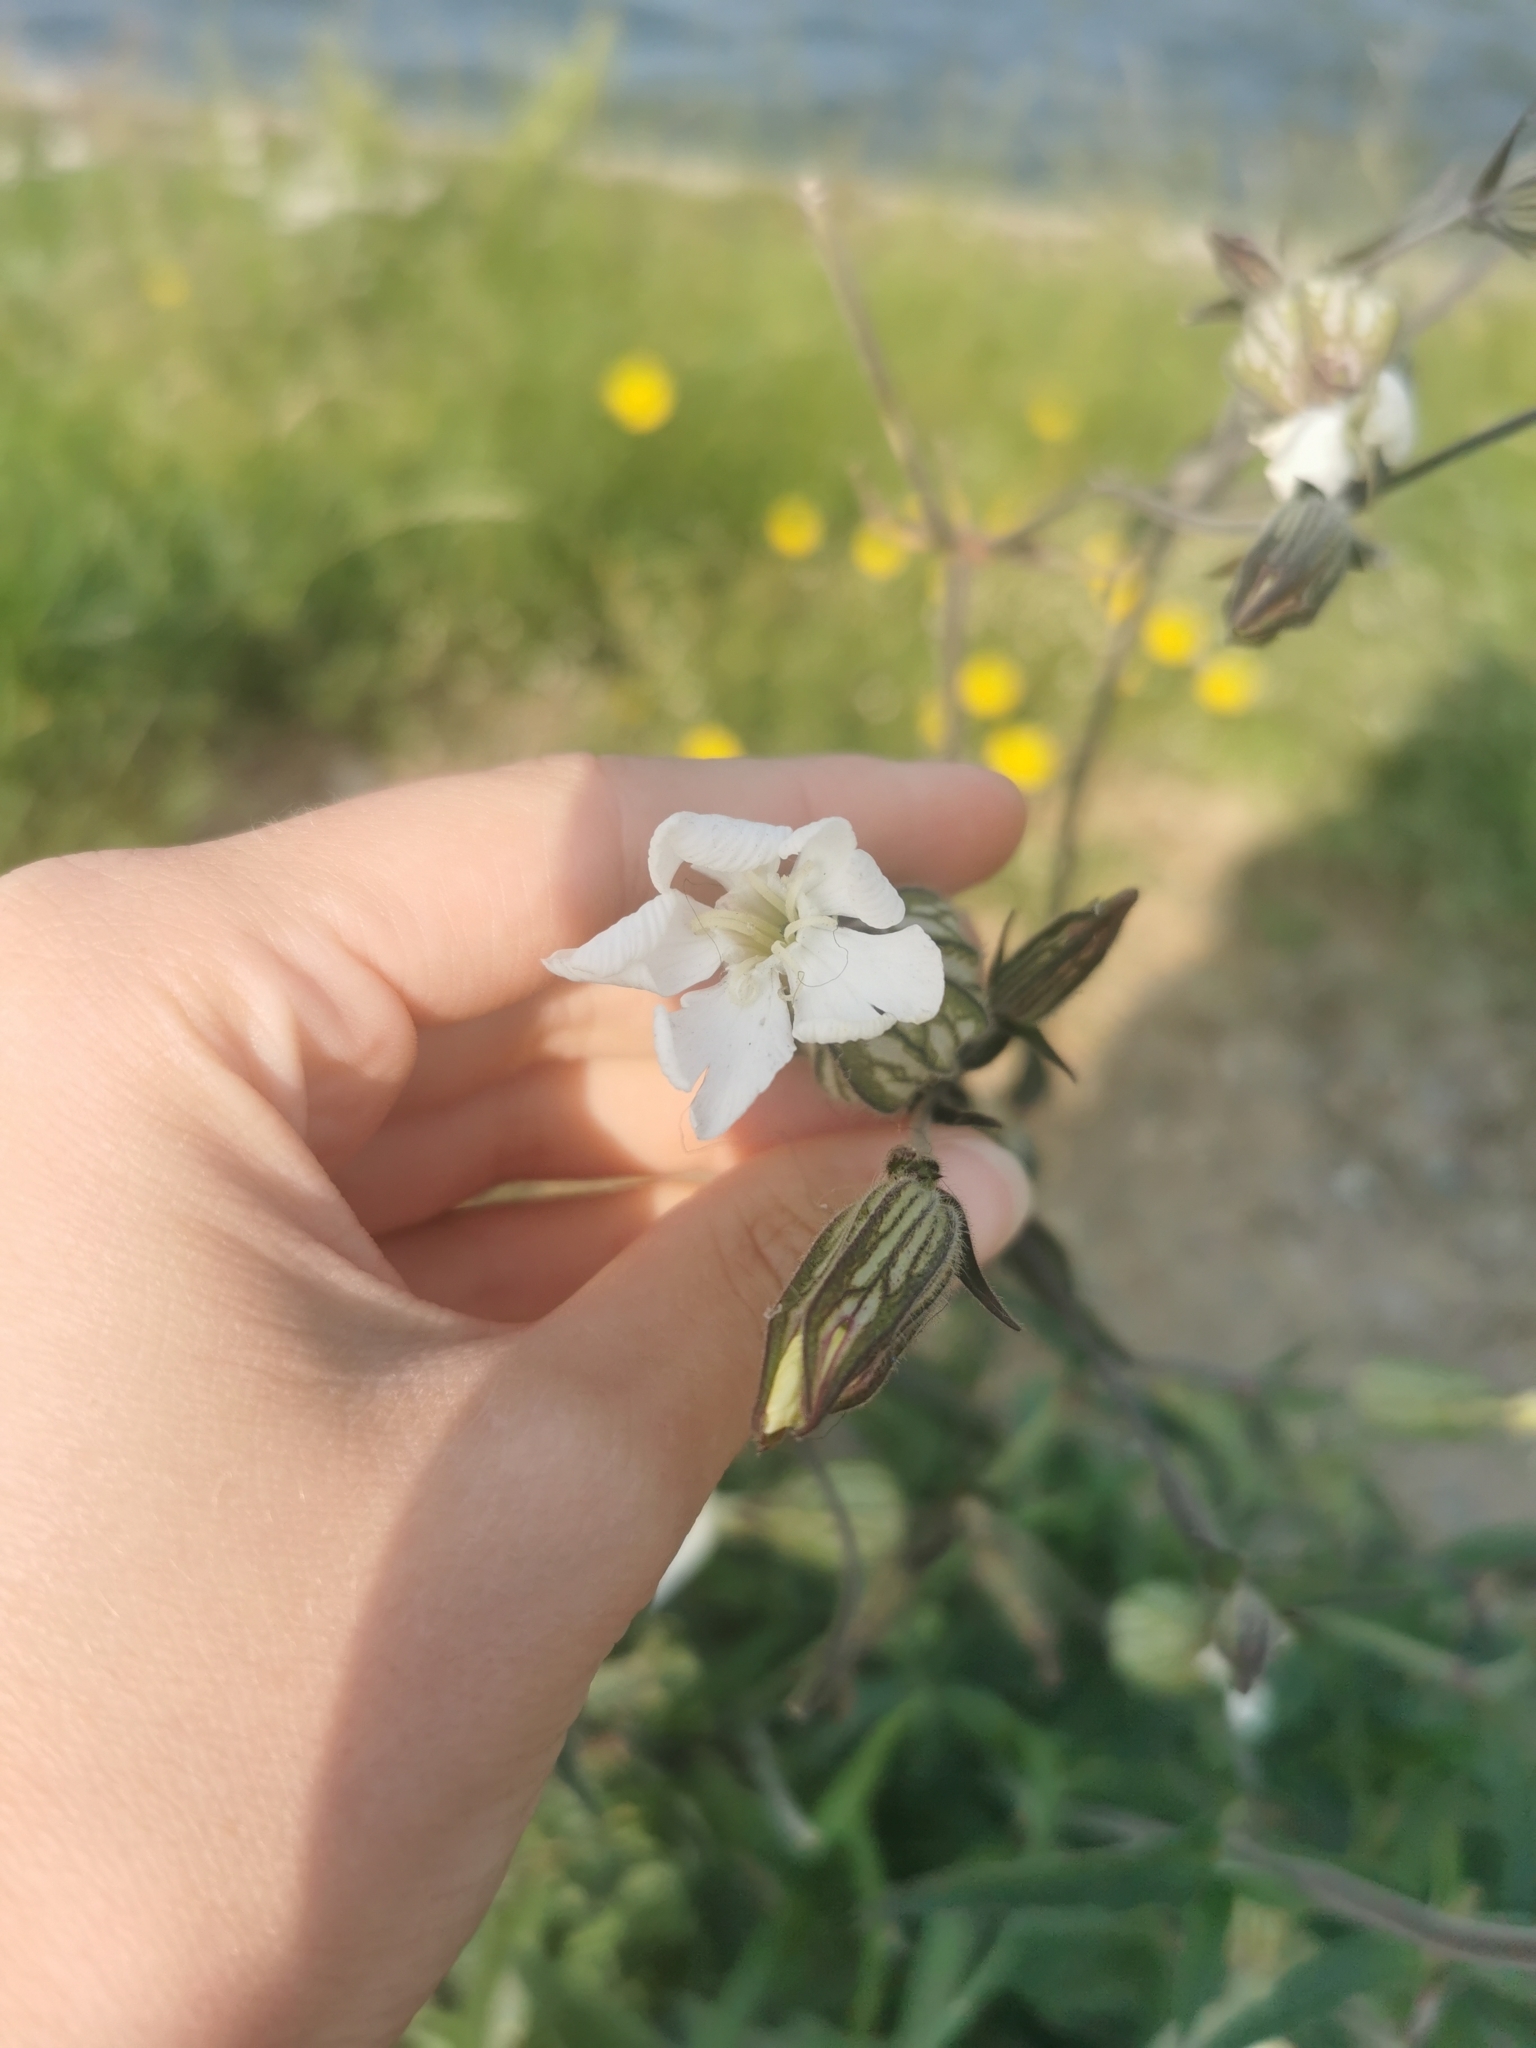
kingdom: Plantae
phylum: Tracheophyta
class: Magnoliopsida
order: Caryophyllales
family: Caryophyllaceae
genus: Silene
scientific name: Silene latifolia
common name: White campion
